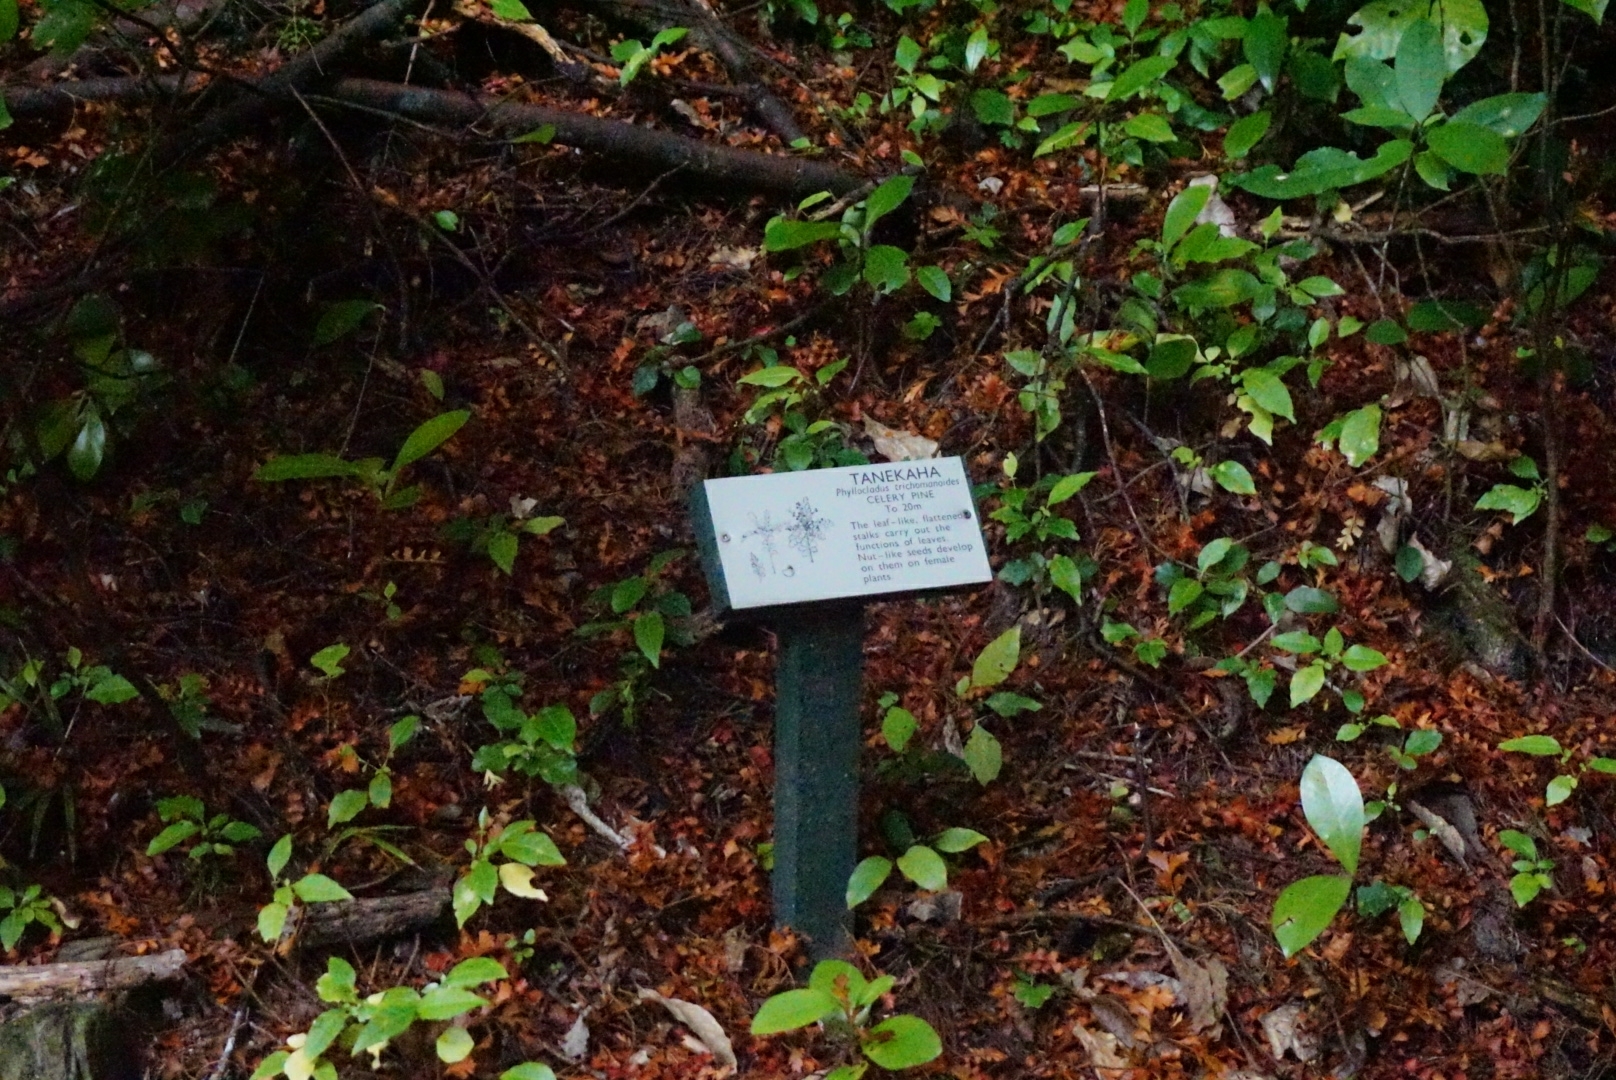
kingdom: Plantae
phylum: Tracheophyta
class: Pinopsida
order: Pinales
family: Phyllocladaceae
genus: Phyllocladus
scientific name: Phyllocladus trichomanoides
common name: Celery pine
